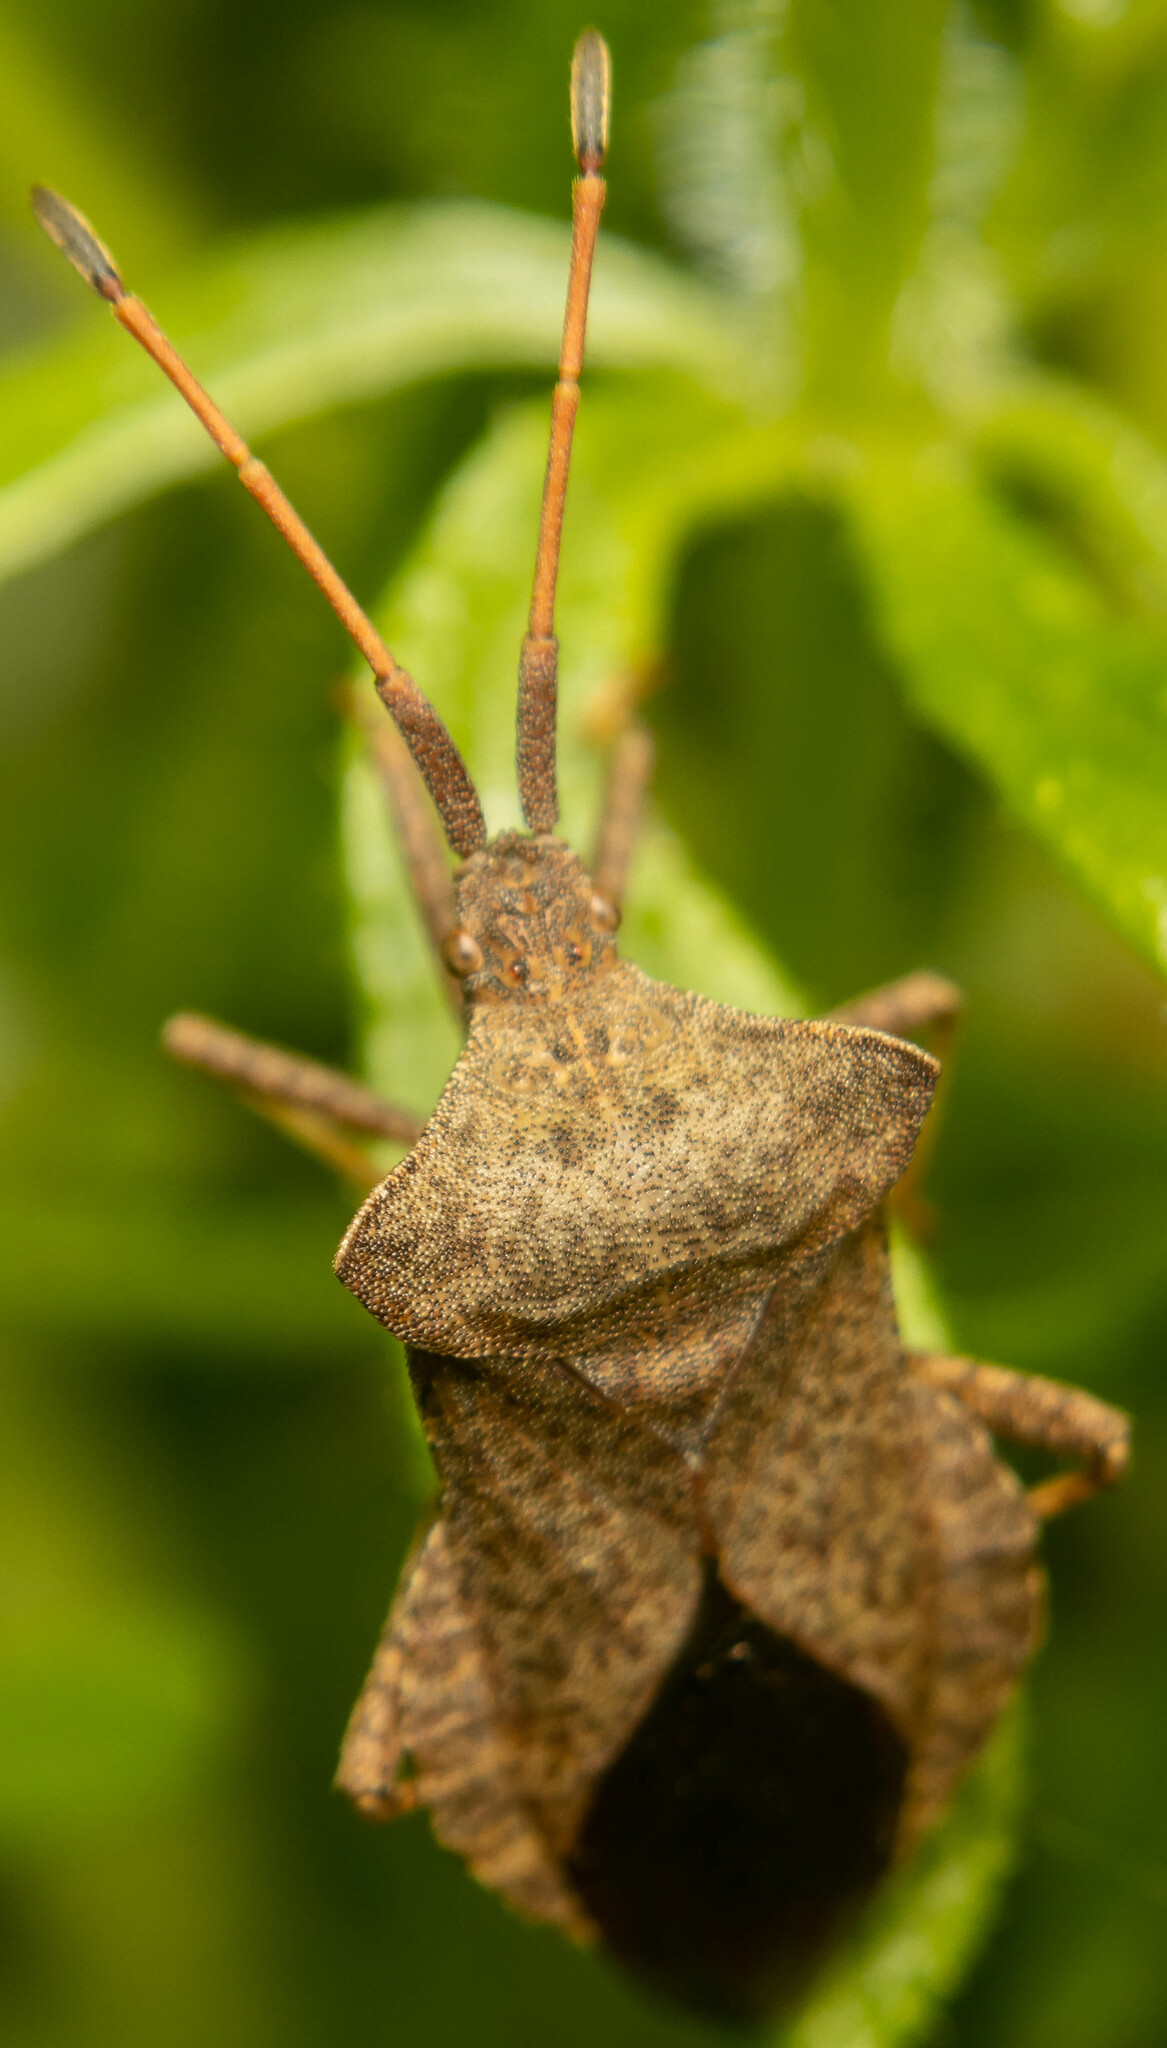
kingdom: Animalia
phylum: Arthropoda
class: Insecta
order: Hemiptera
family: Coreidae
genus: Coreus
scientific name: Coreus marginatus
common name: Dock bug
